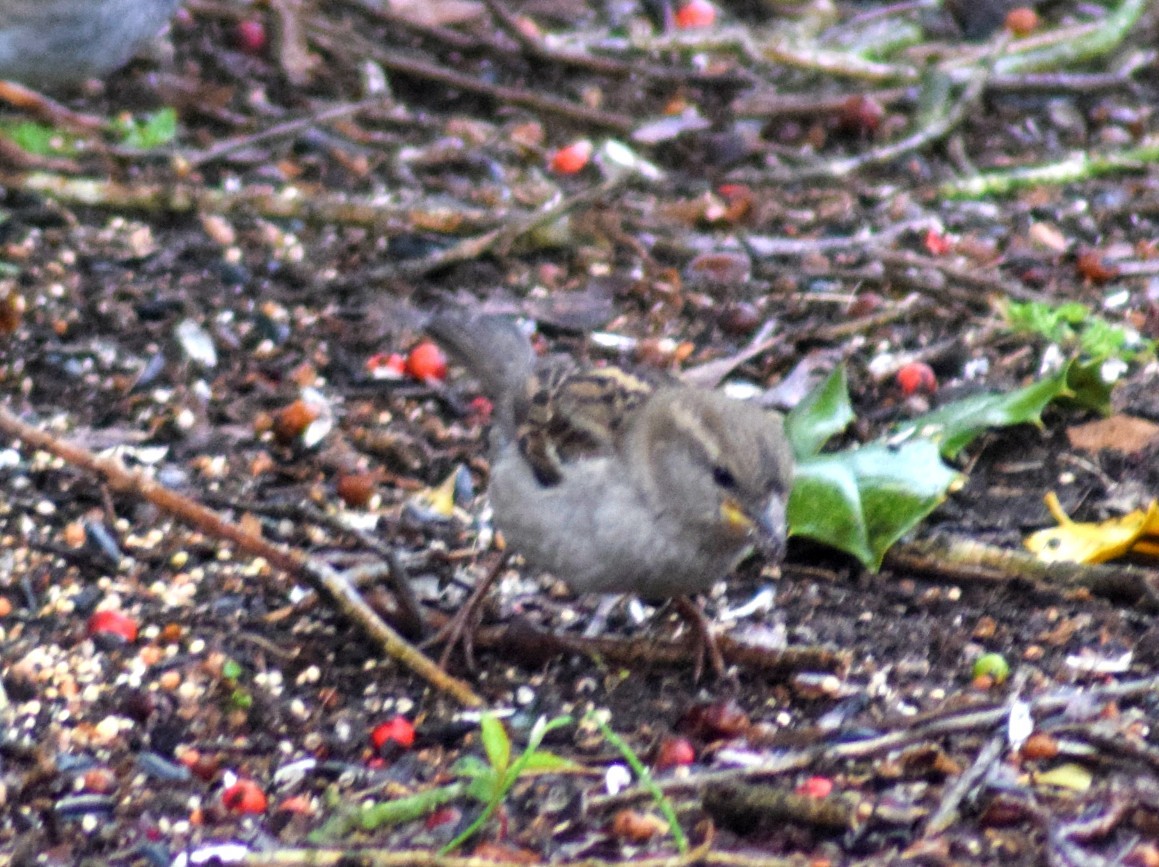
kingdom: Animalia
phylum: Chordata
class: Aves
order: Passeriformes
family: Passeridae
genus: Passer
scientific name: Passer domesticus
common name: House sparrow
